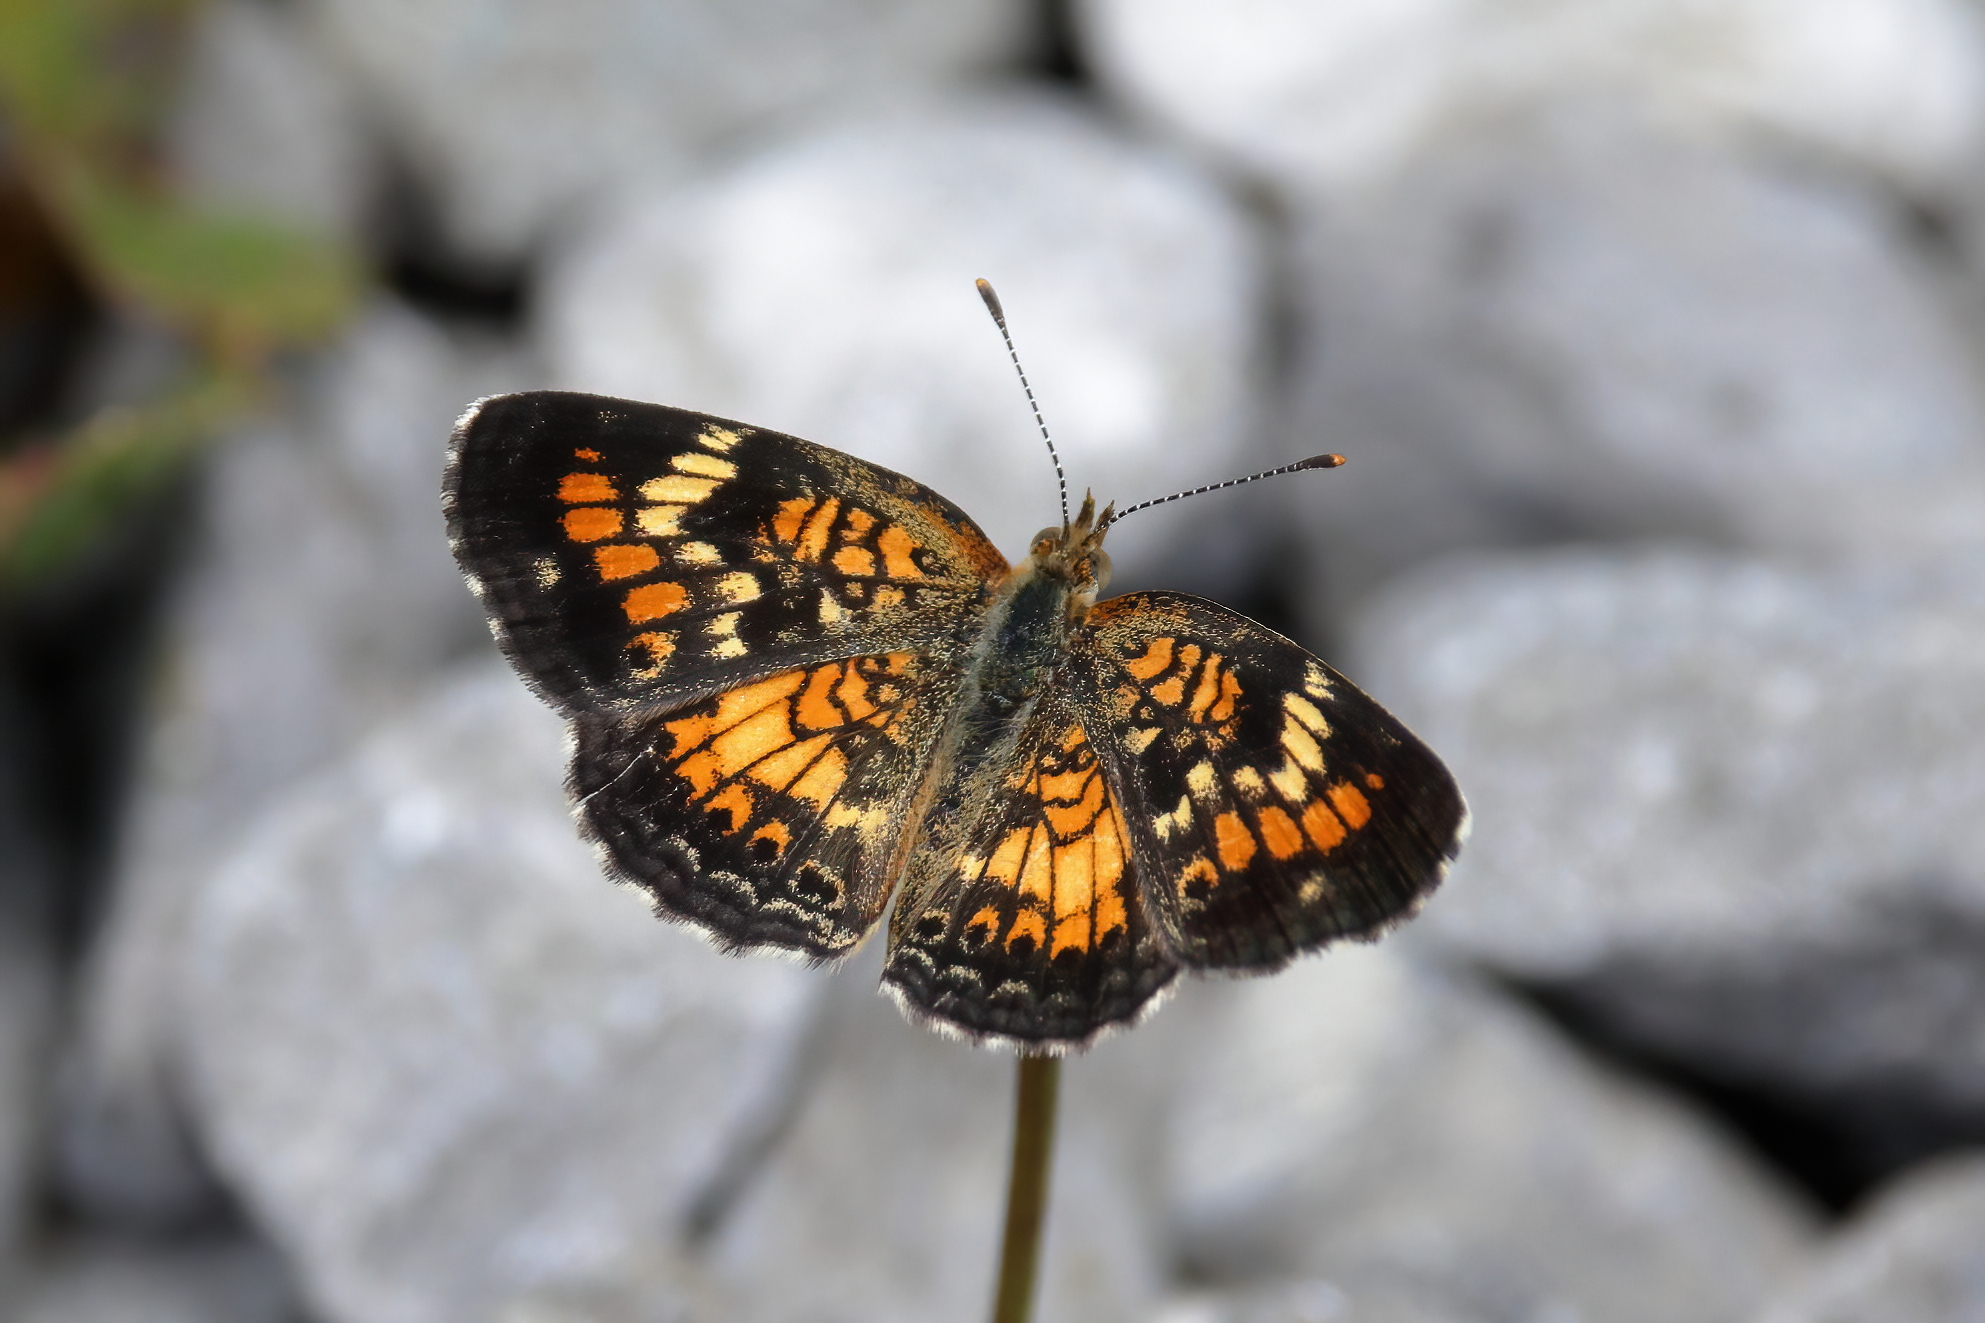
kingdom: Animalia
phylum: Arthropoda
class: Insecta
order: Lepidoptera
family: Nymphalidae
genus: Phyciodes
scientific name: Phyciodes phaon
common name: Phaon crescent
